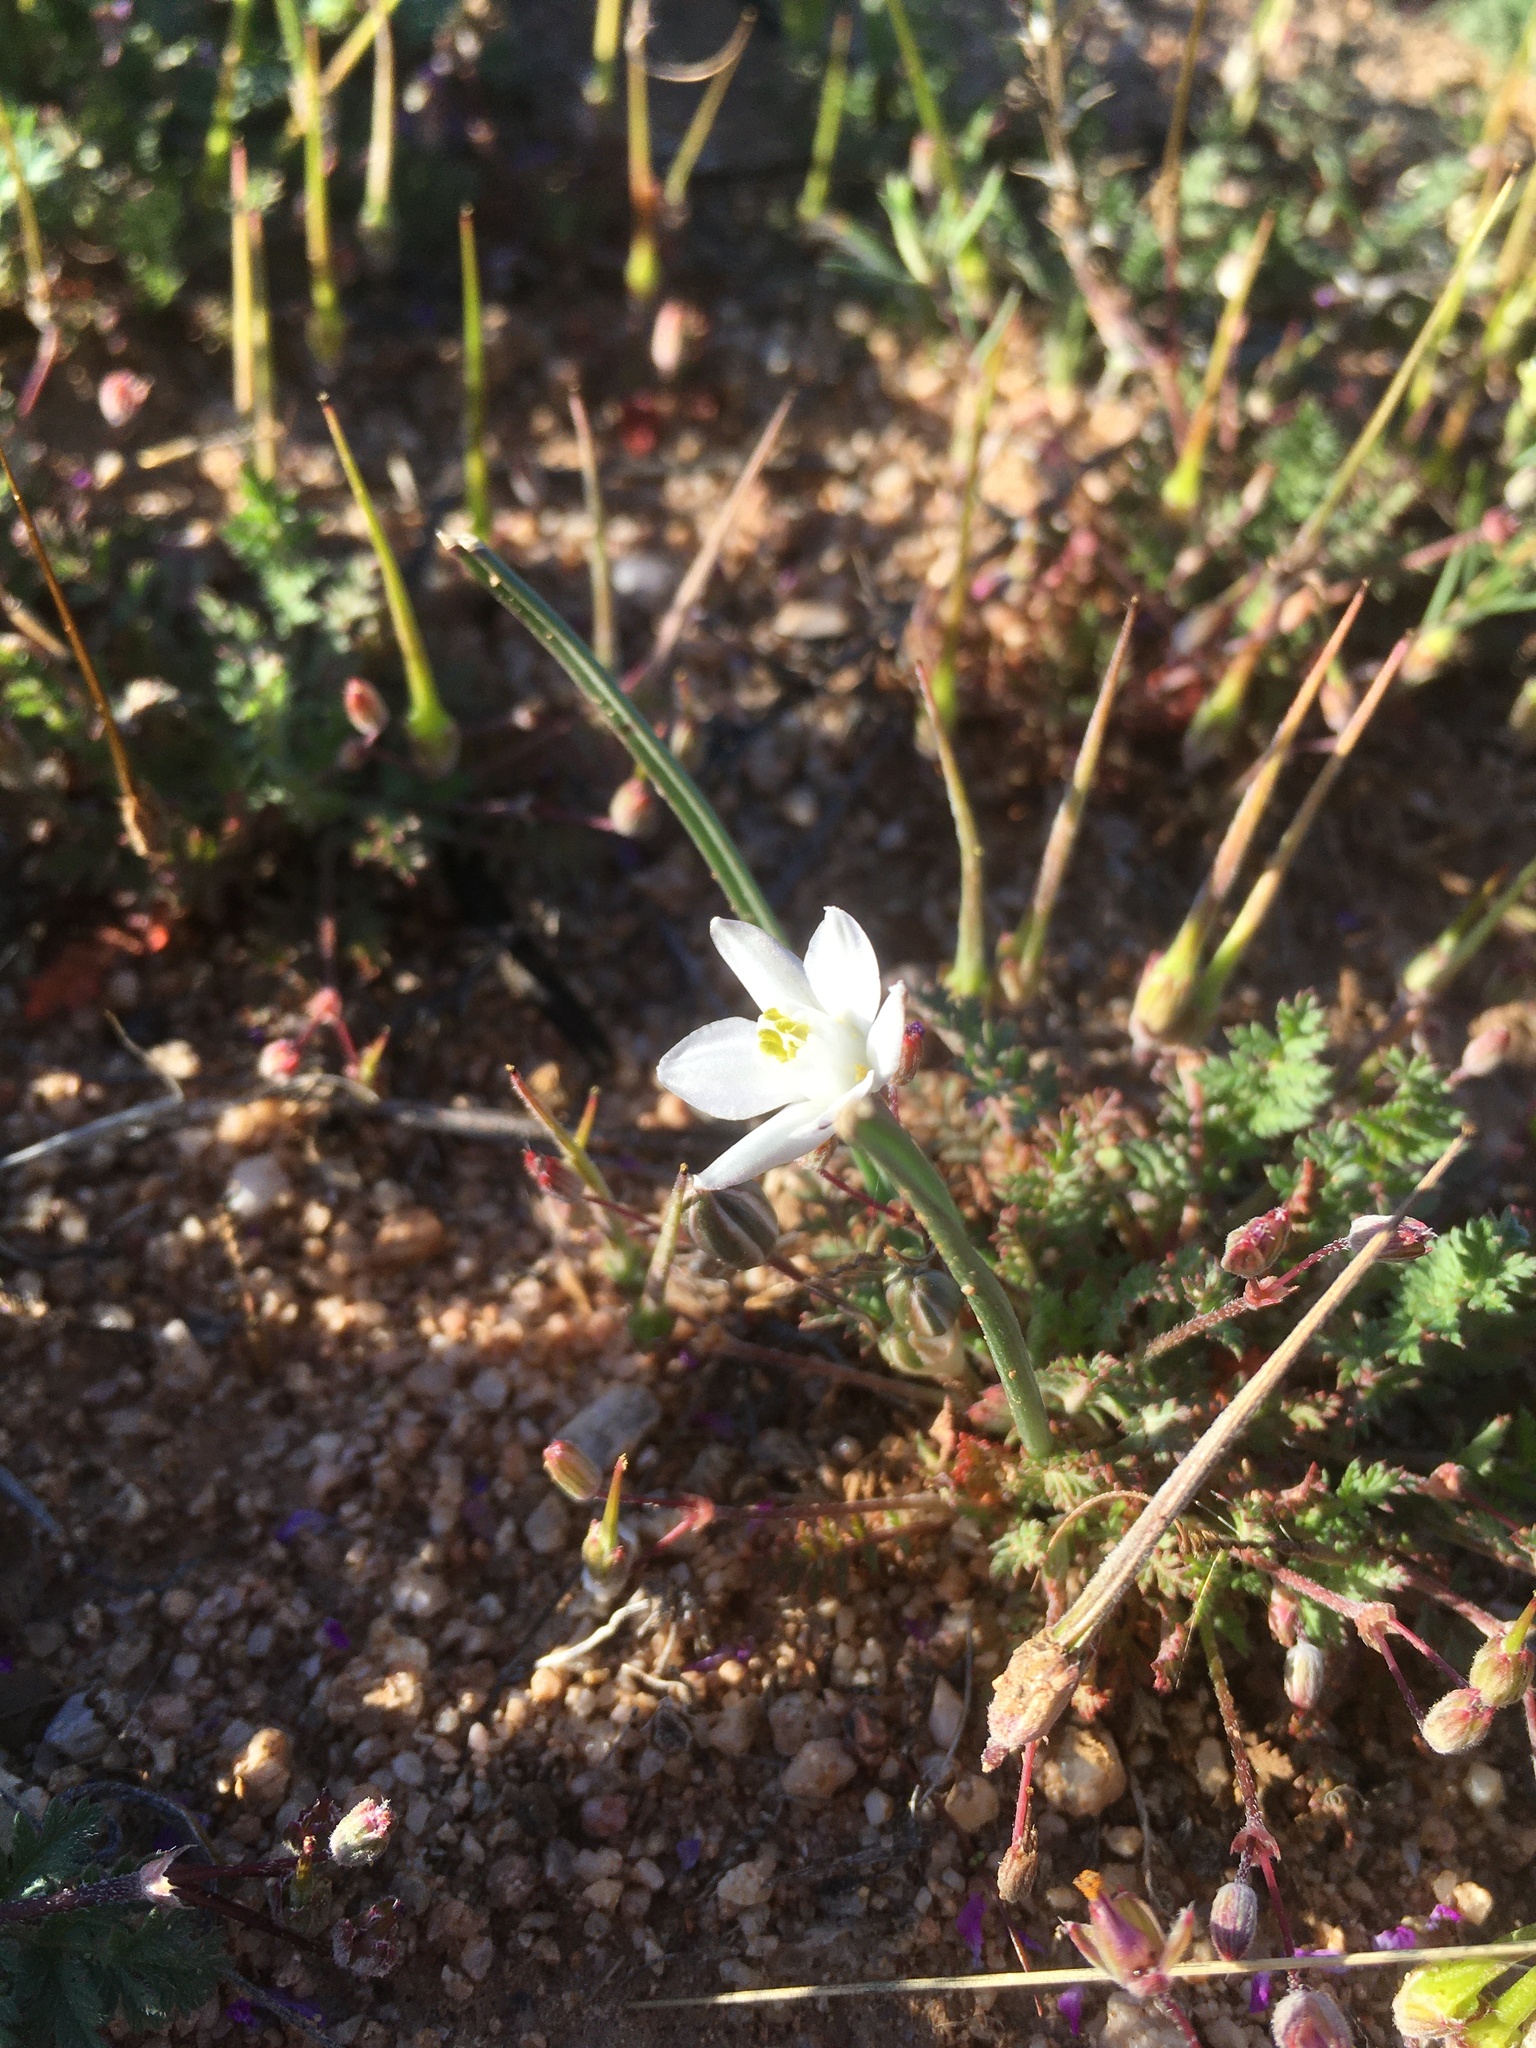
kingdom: Plantae
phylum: Tracheophyta
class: Liliopsida
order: Asparagales
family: Asparagaceae
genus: Muilla
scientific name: Muilla lordsburgana
